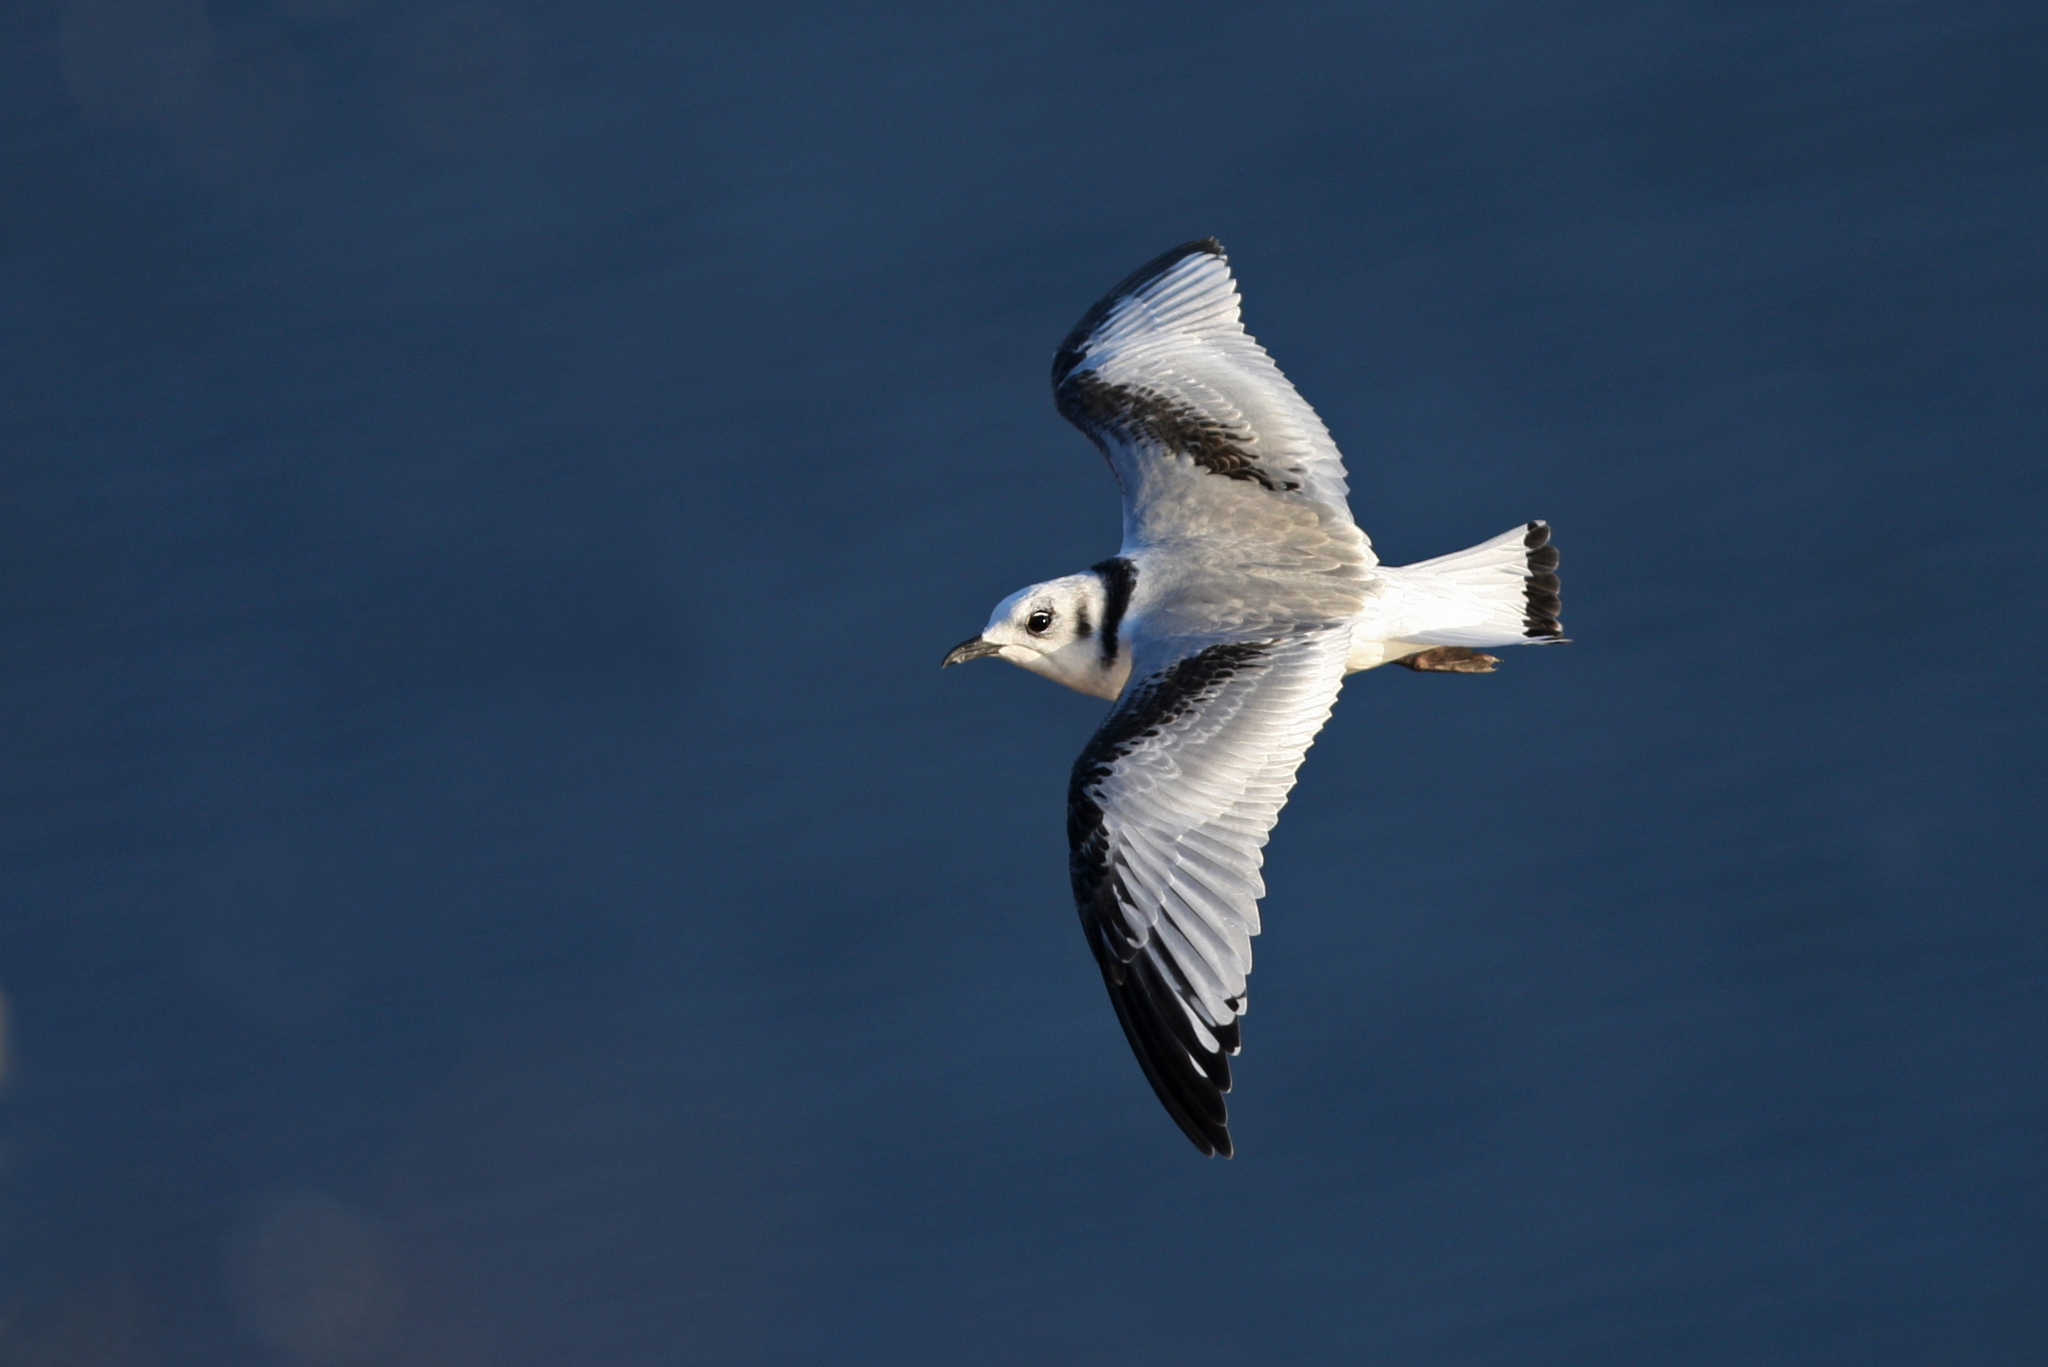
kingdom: Animalia
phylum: Chordata
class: Aves
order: Charadriiformes
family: Laridae
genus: Rissa
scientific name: Rissa tridactyla
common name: Black-legged kittiwake
